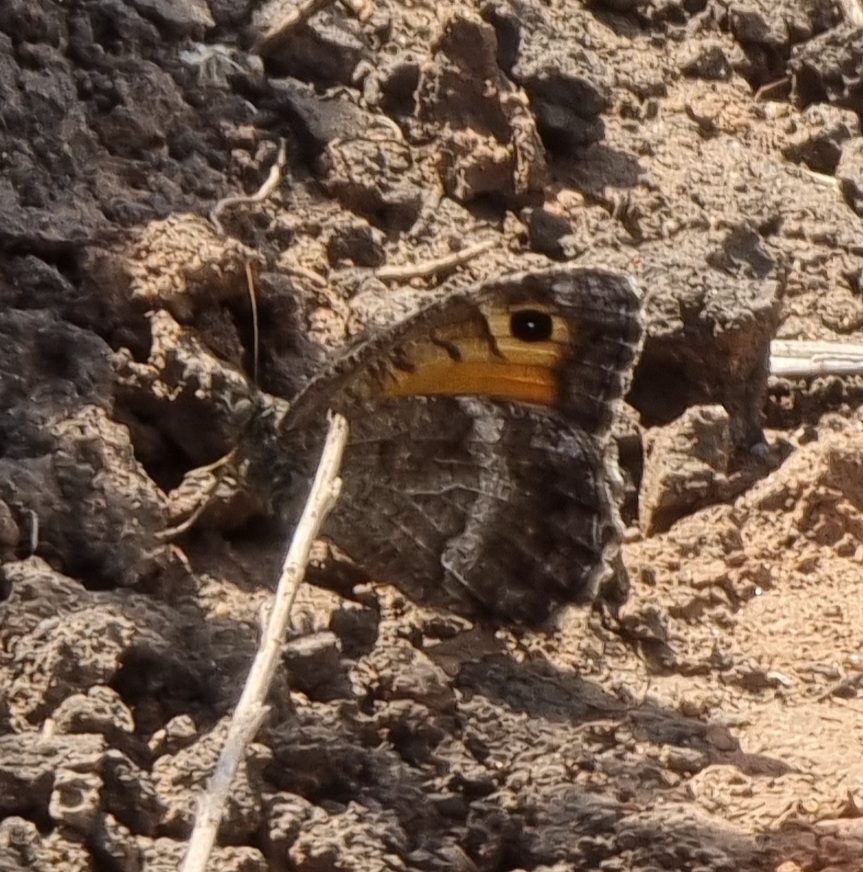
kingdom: Animalia
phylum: Arthropoda
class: Insecta
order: Lepidoptera
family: Nymphalidae
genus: Arethusana
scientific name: Arethusana arethusa
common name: False grayling
